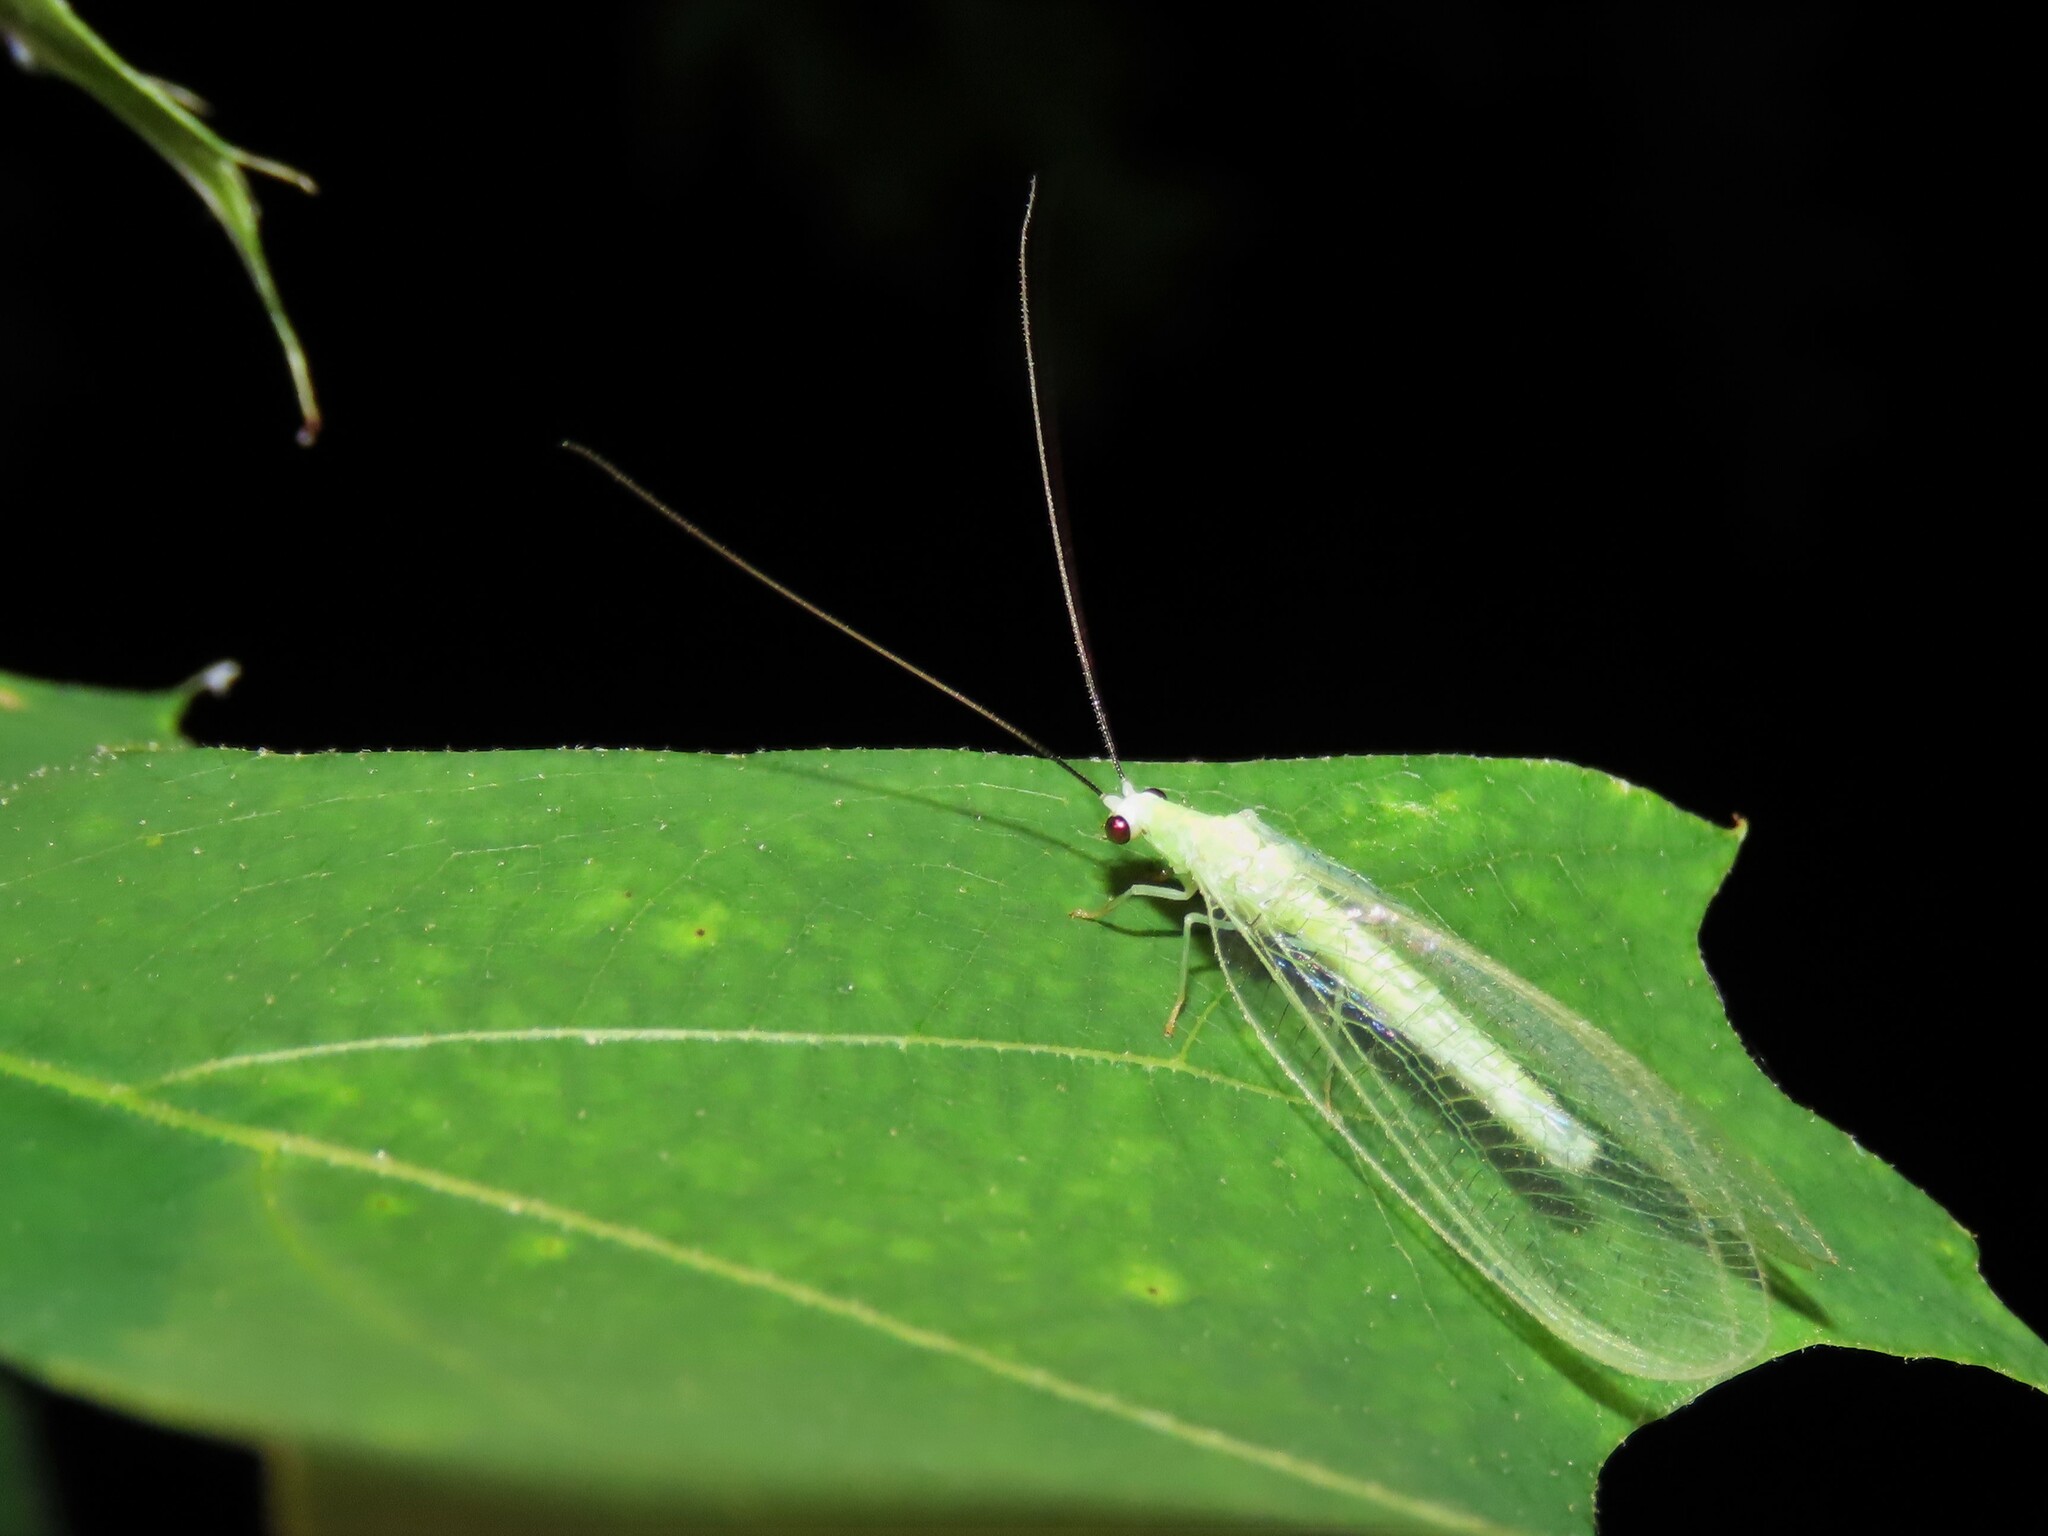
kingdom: Animalia
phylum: Arthropoda
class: Insecta
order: Neuroptera
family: Chrysopidae
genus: Chrysopa
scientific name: Chrysopa nigricornis
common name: Black-horned green lacewing
